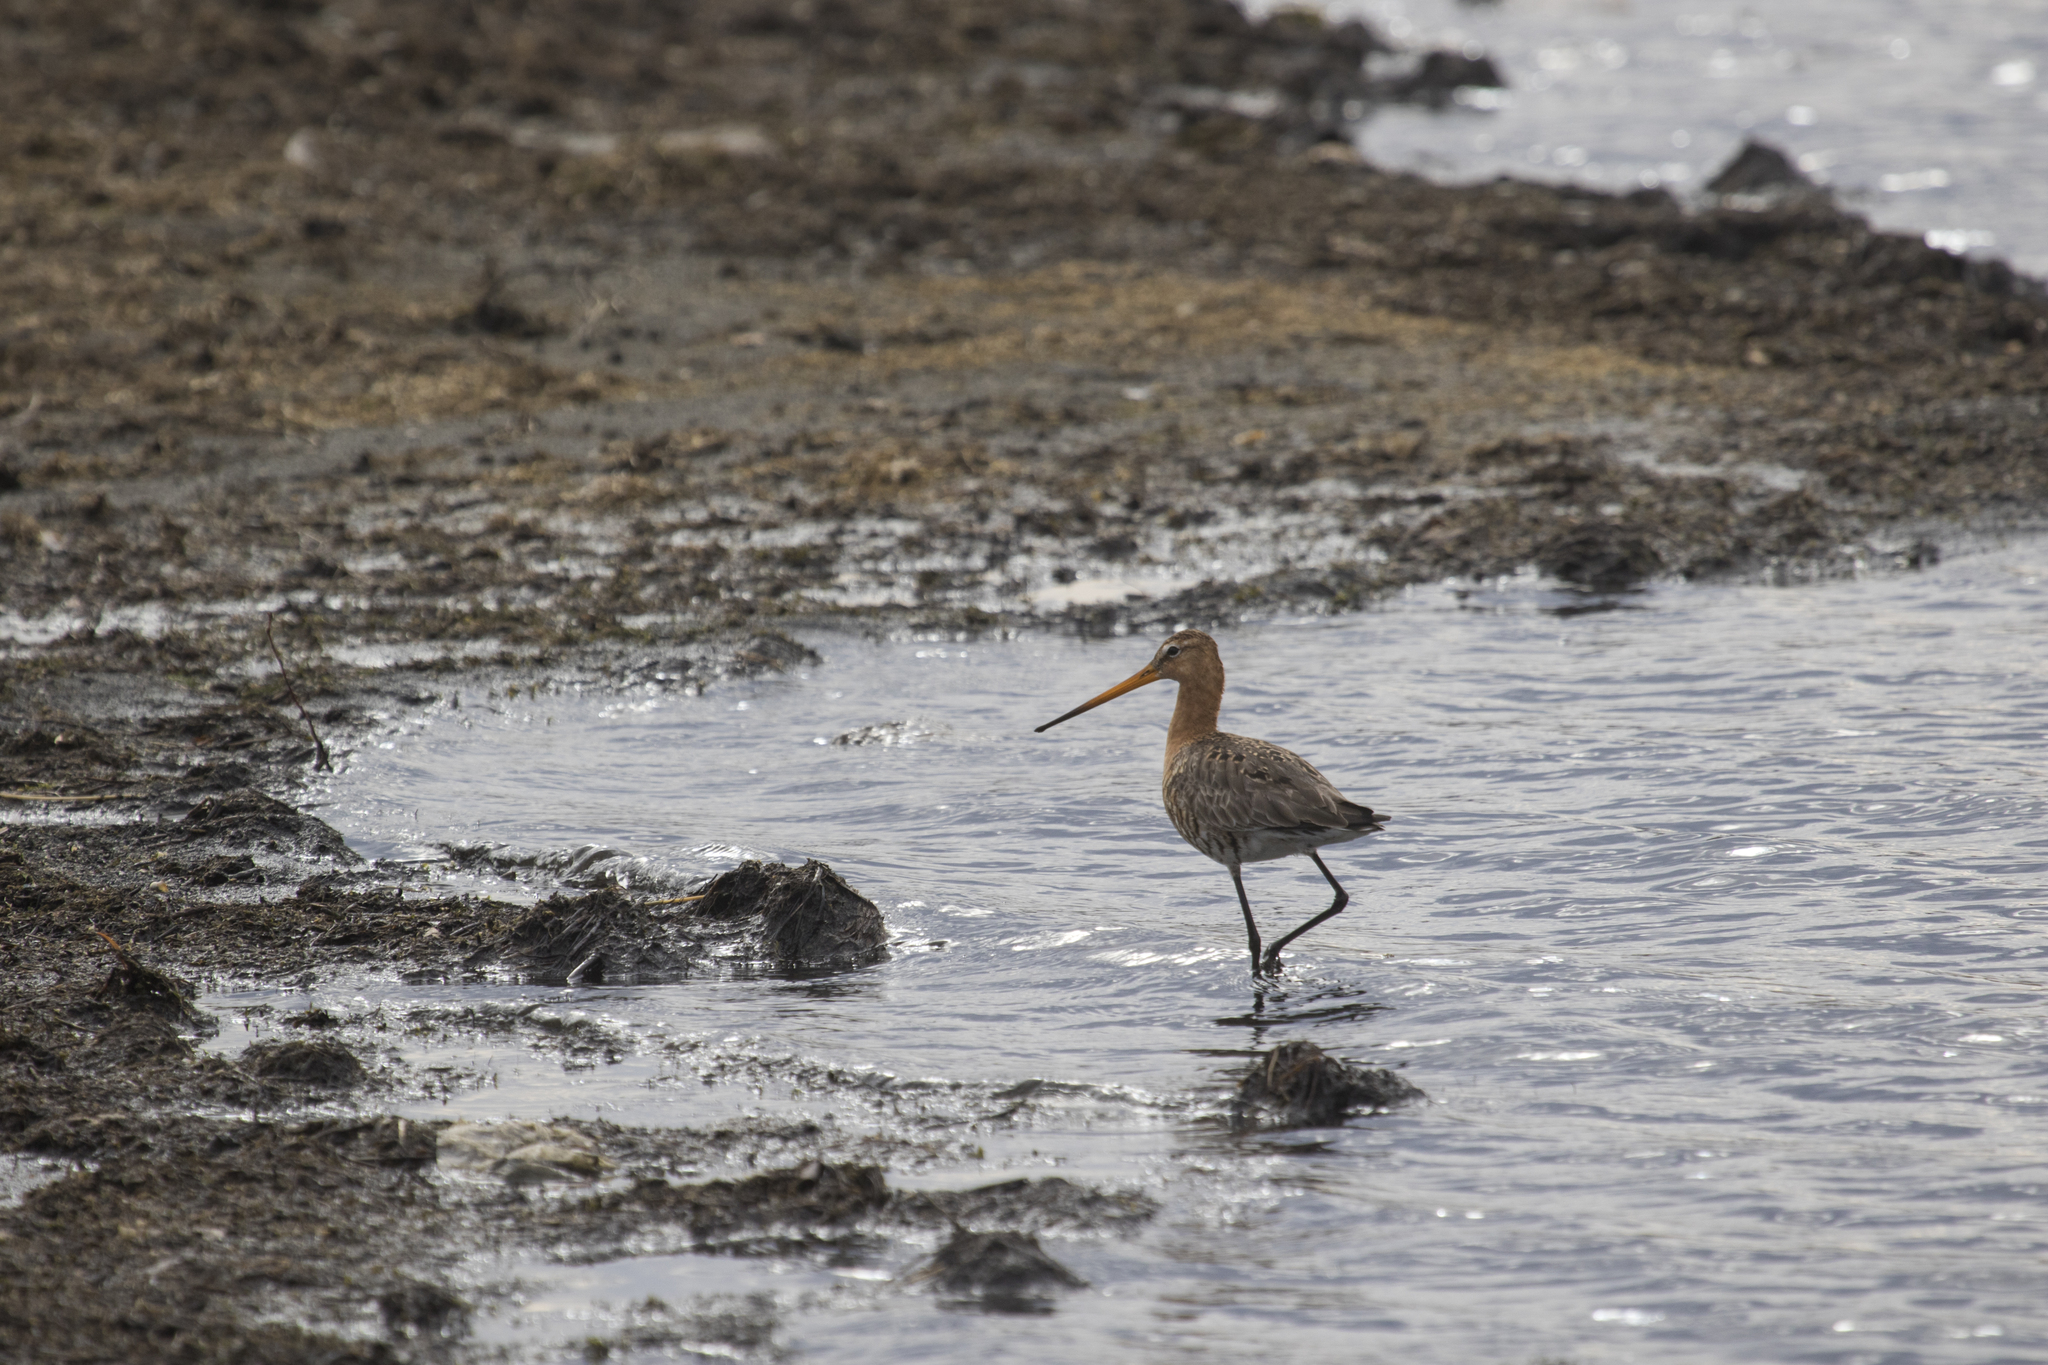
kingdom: Animalia
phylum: Chordata
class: Aves
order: Charadriiformes
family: Scolopacidae
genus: Limosa
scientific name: Limosa limosa
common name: Black-tailed godwit
